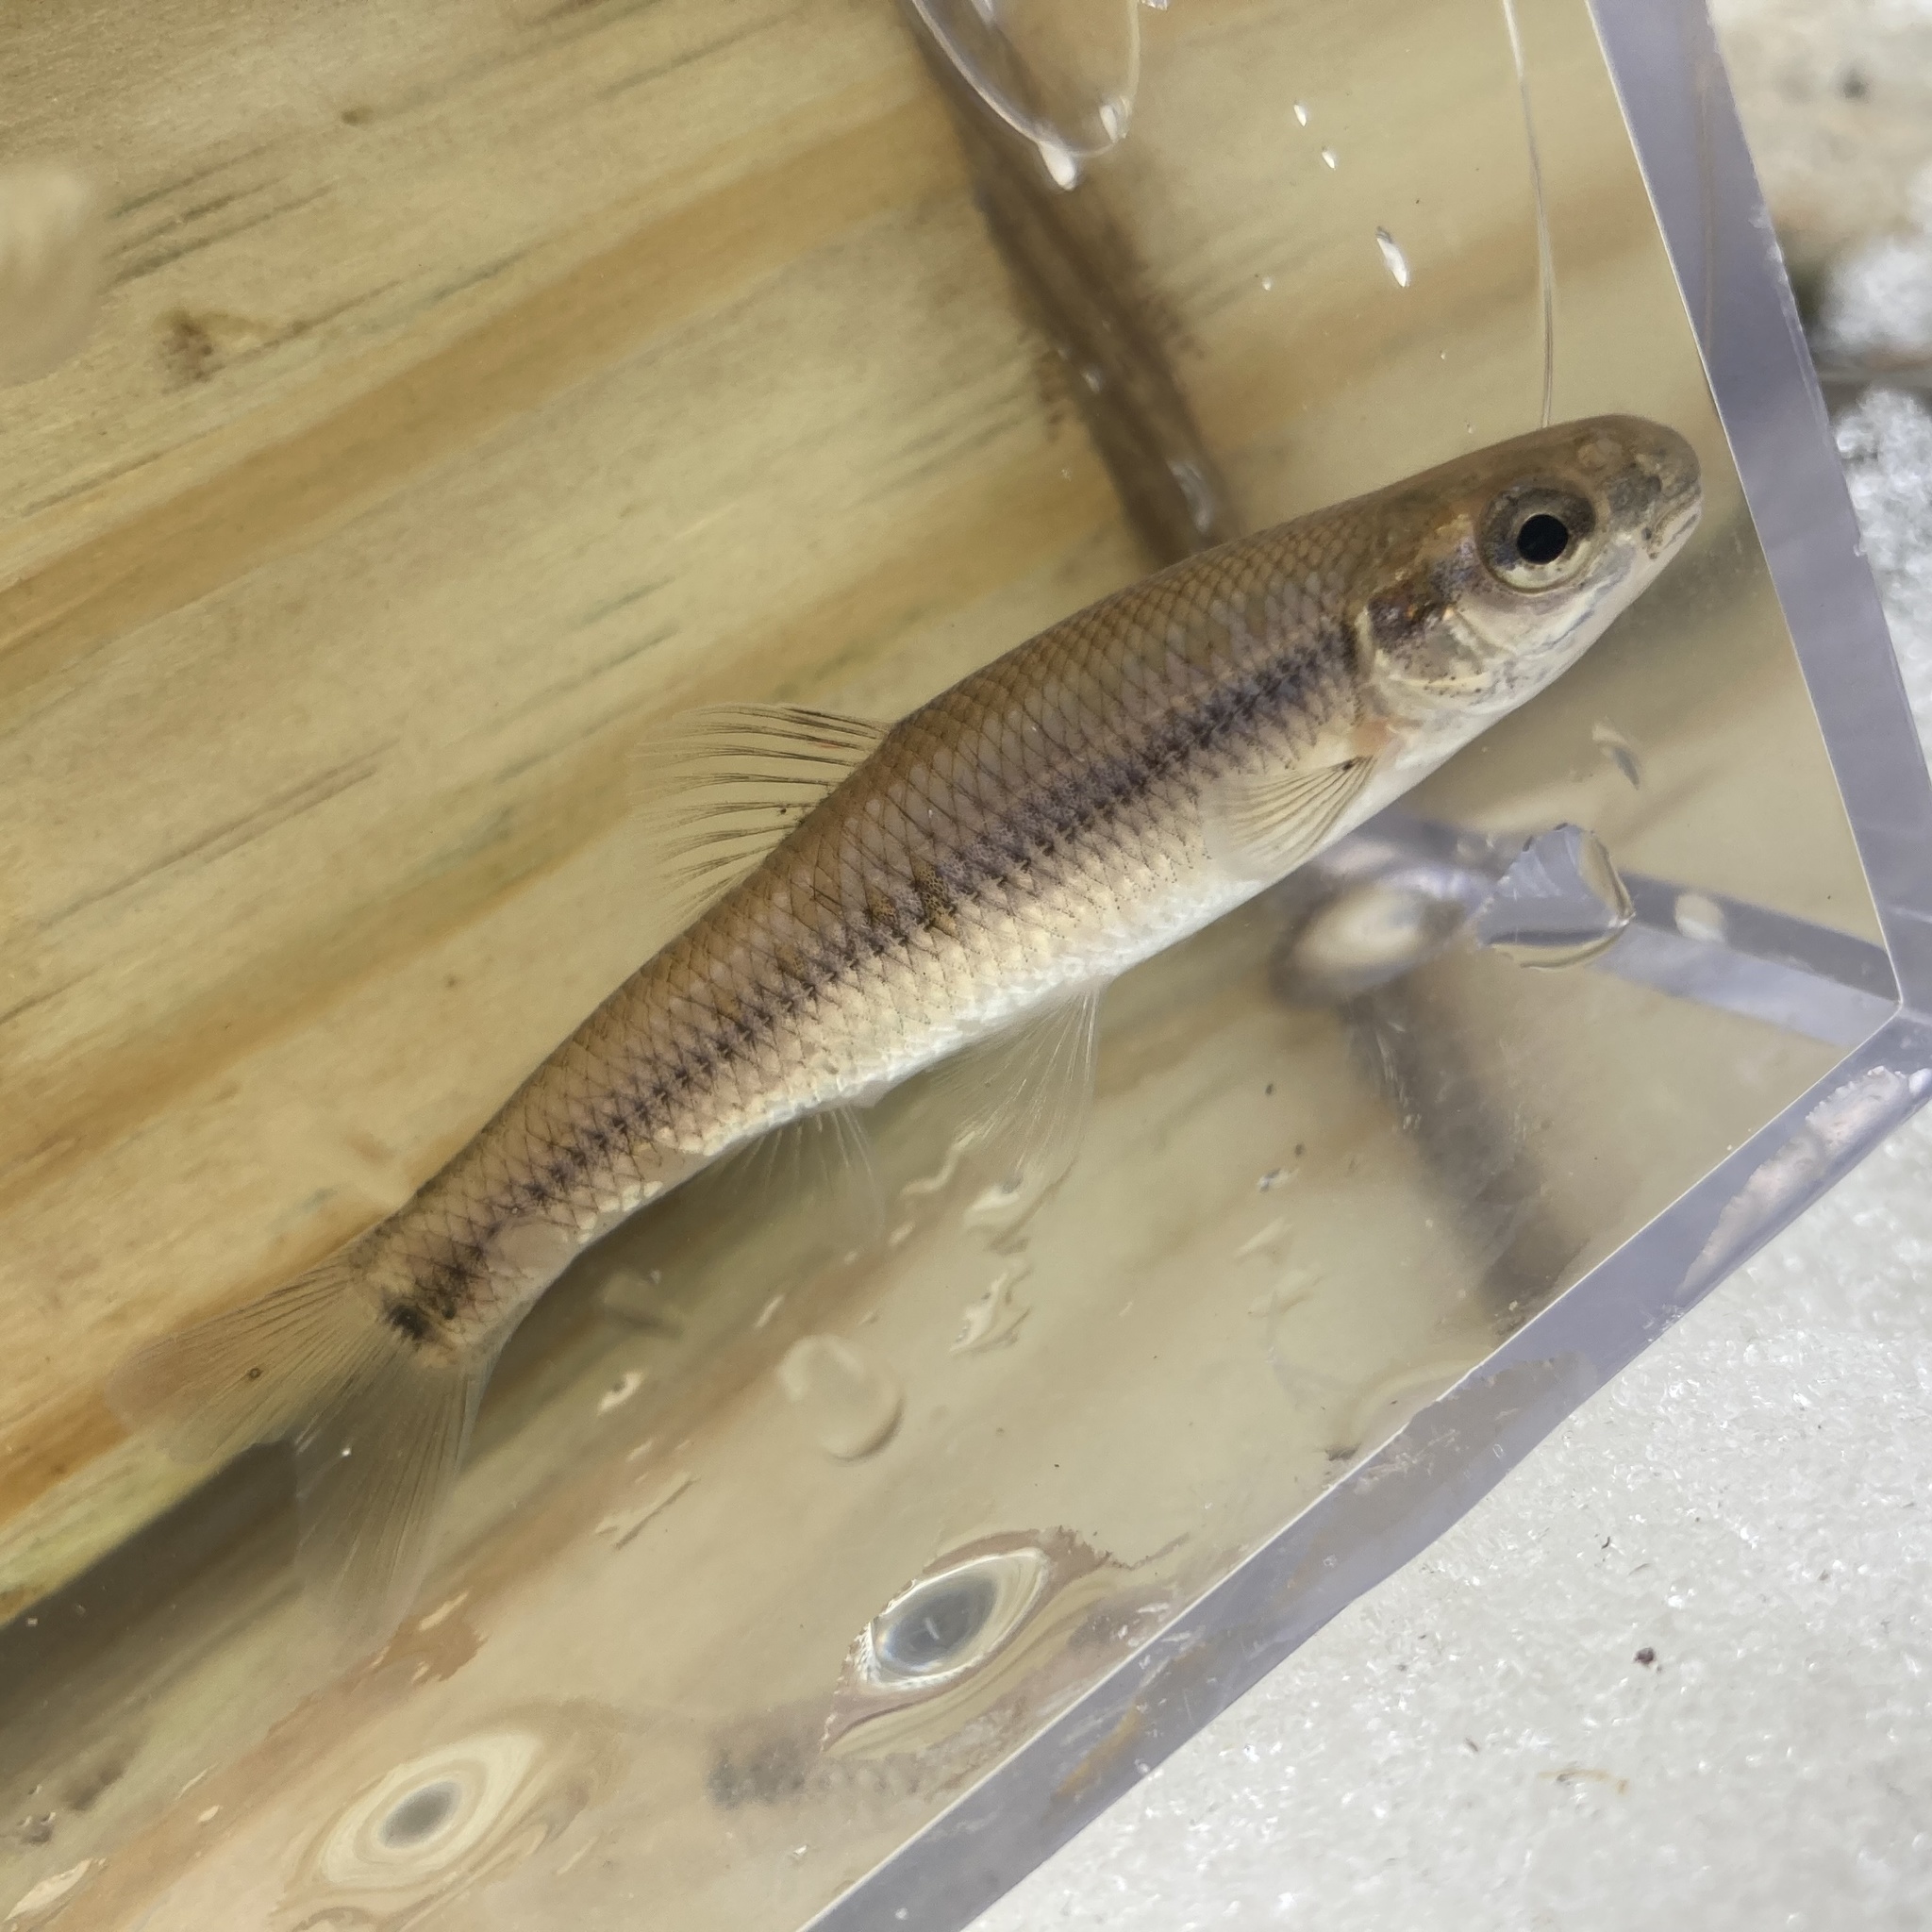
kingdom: Animalia
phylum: Chordata
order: Cypriniformes
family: Cyprinidae
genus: Pimephales
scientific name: Pimephales notatus
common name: Bluntnose minnow
